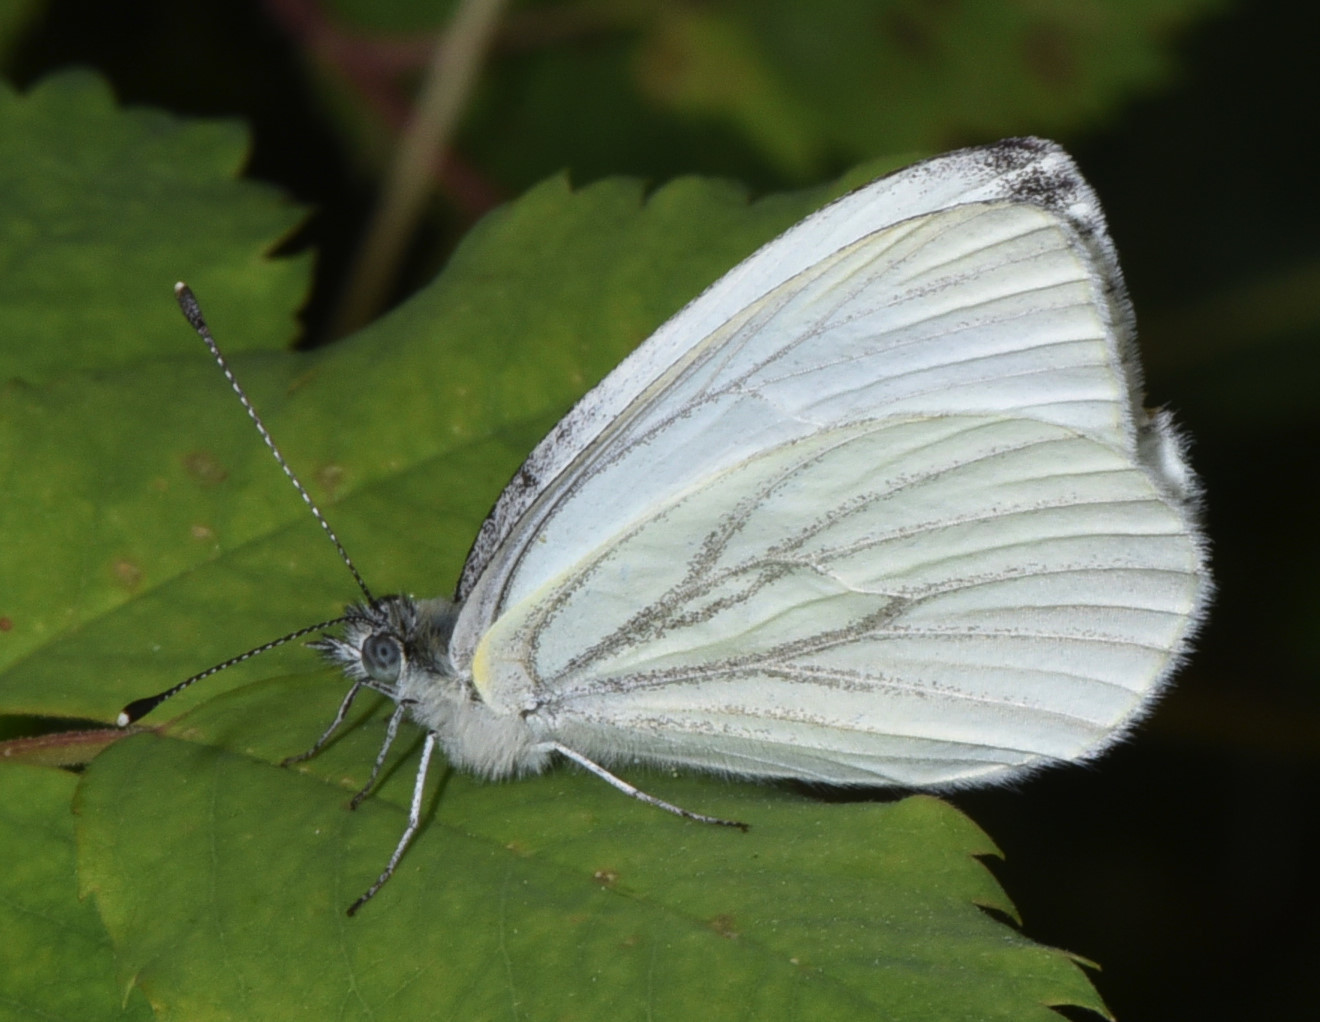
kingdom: Animalia
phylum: Arthropoda
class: Insecta
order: Lepidoptera
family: Pieridae
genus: Pieris
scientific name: Pieris marginalis
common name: Margined white
